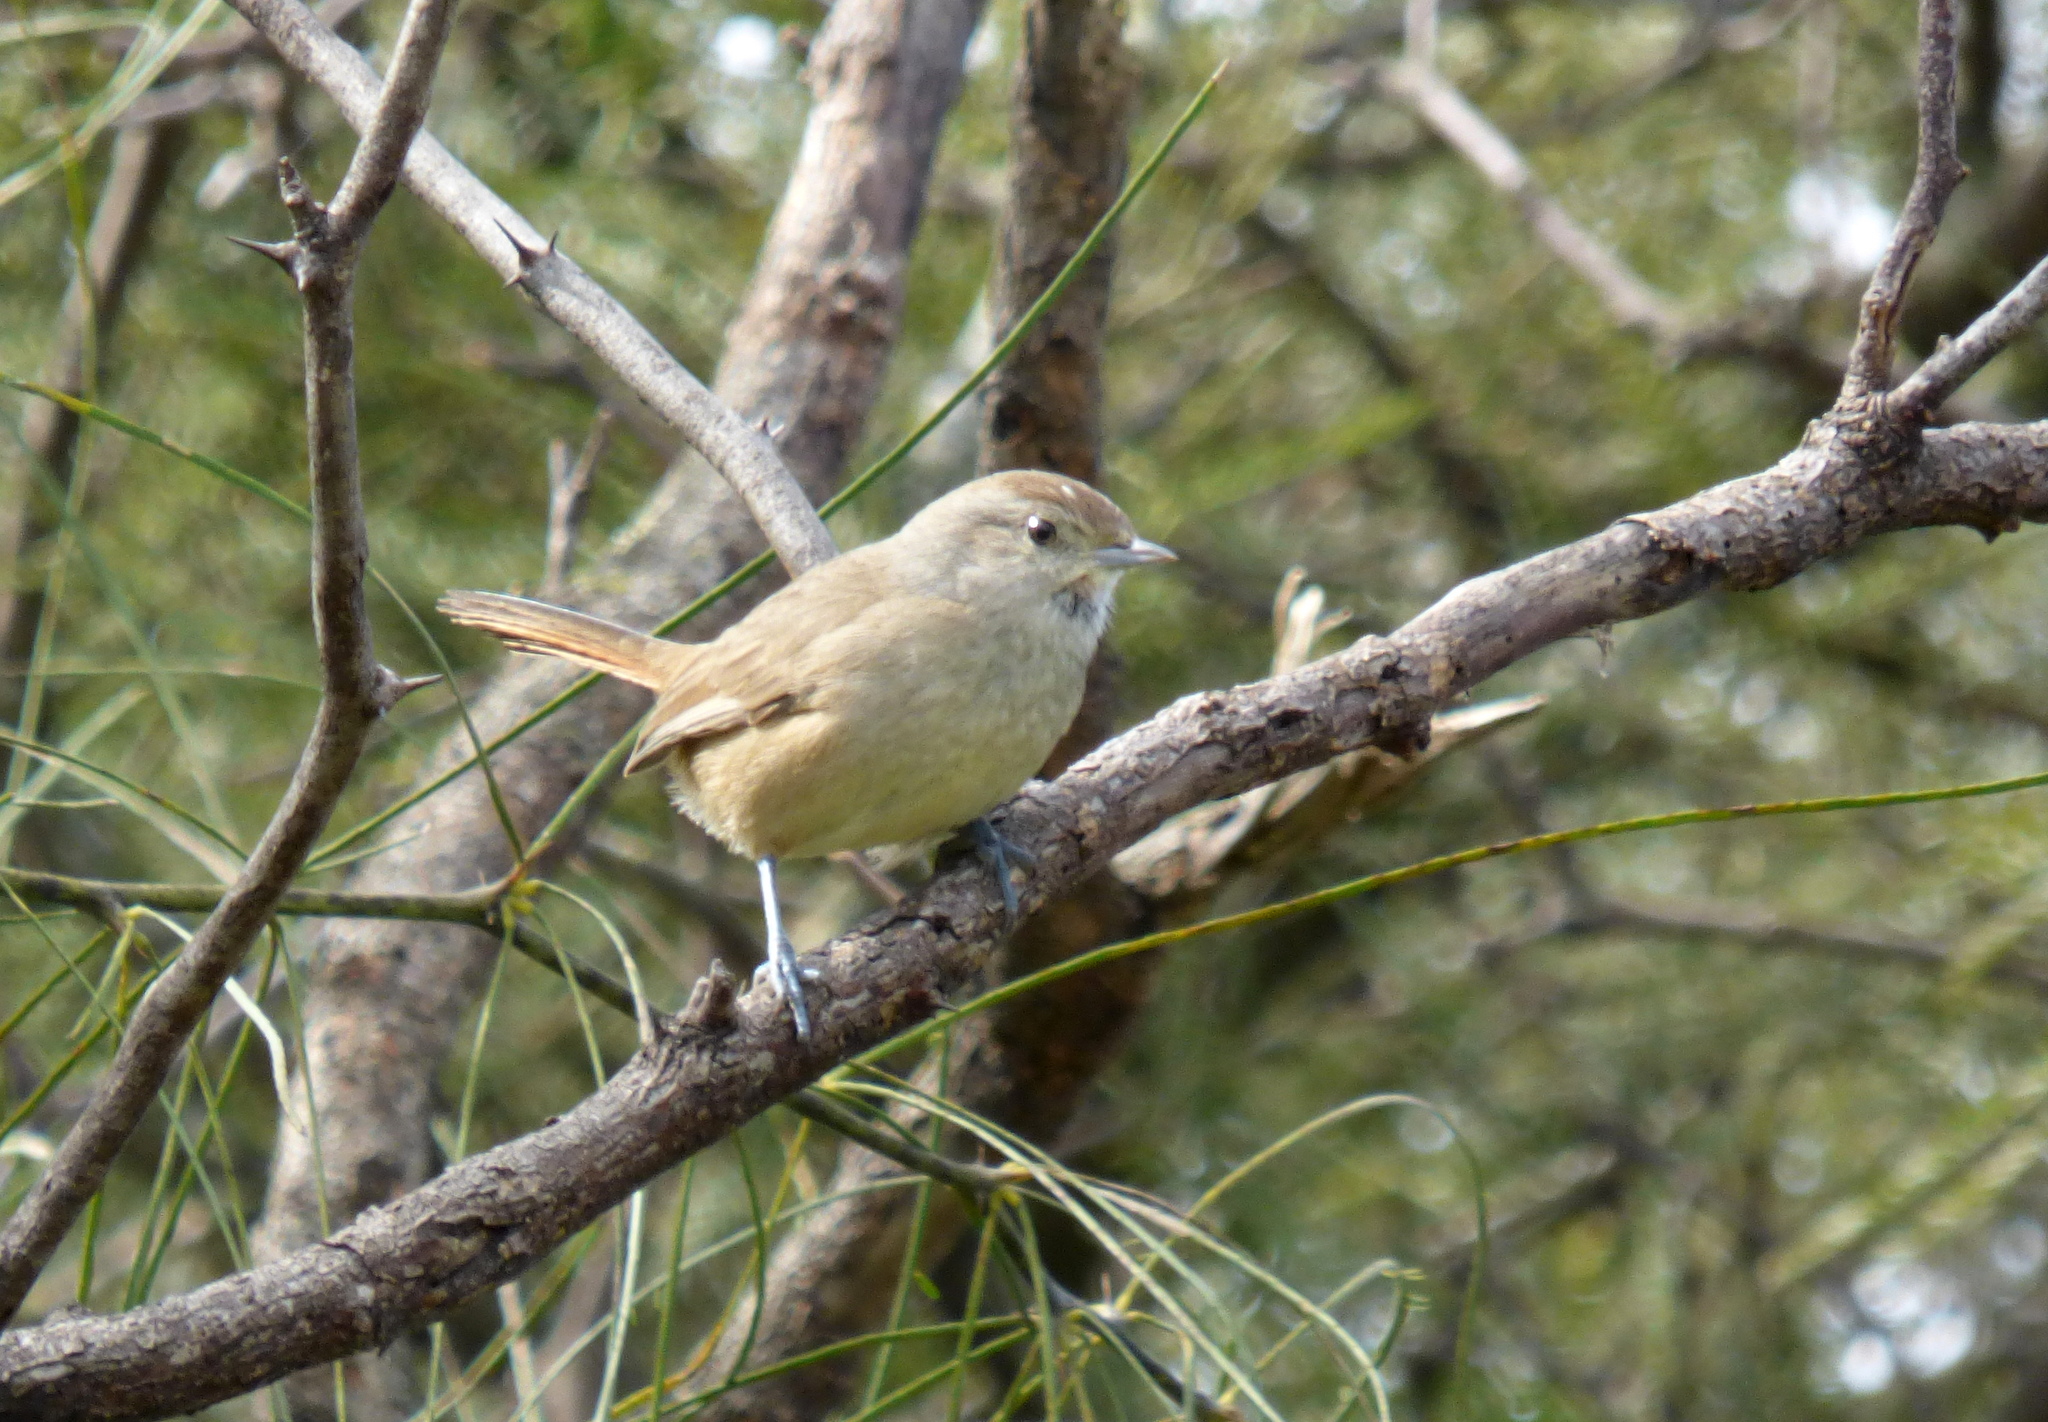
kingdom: Animalia
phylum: Chordata
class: Aves
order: Passeriformes
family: Furnariidae
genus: Asthenes
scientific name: Asthenes baeri
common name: Short-billed canastero
